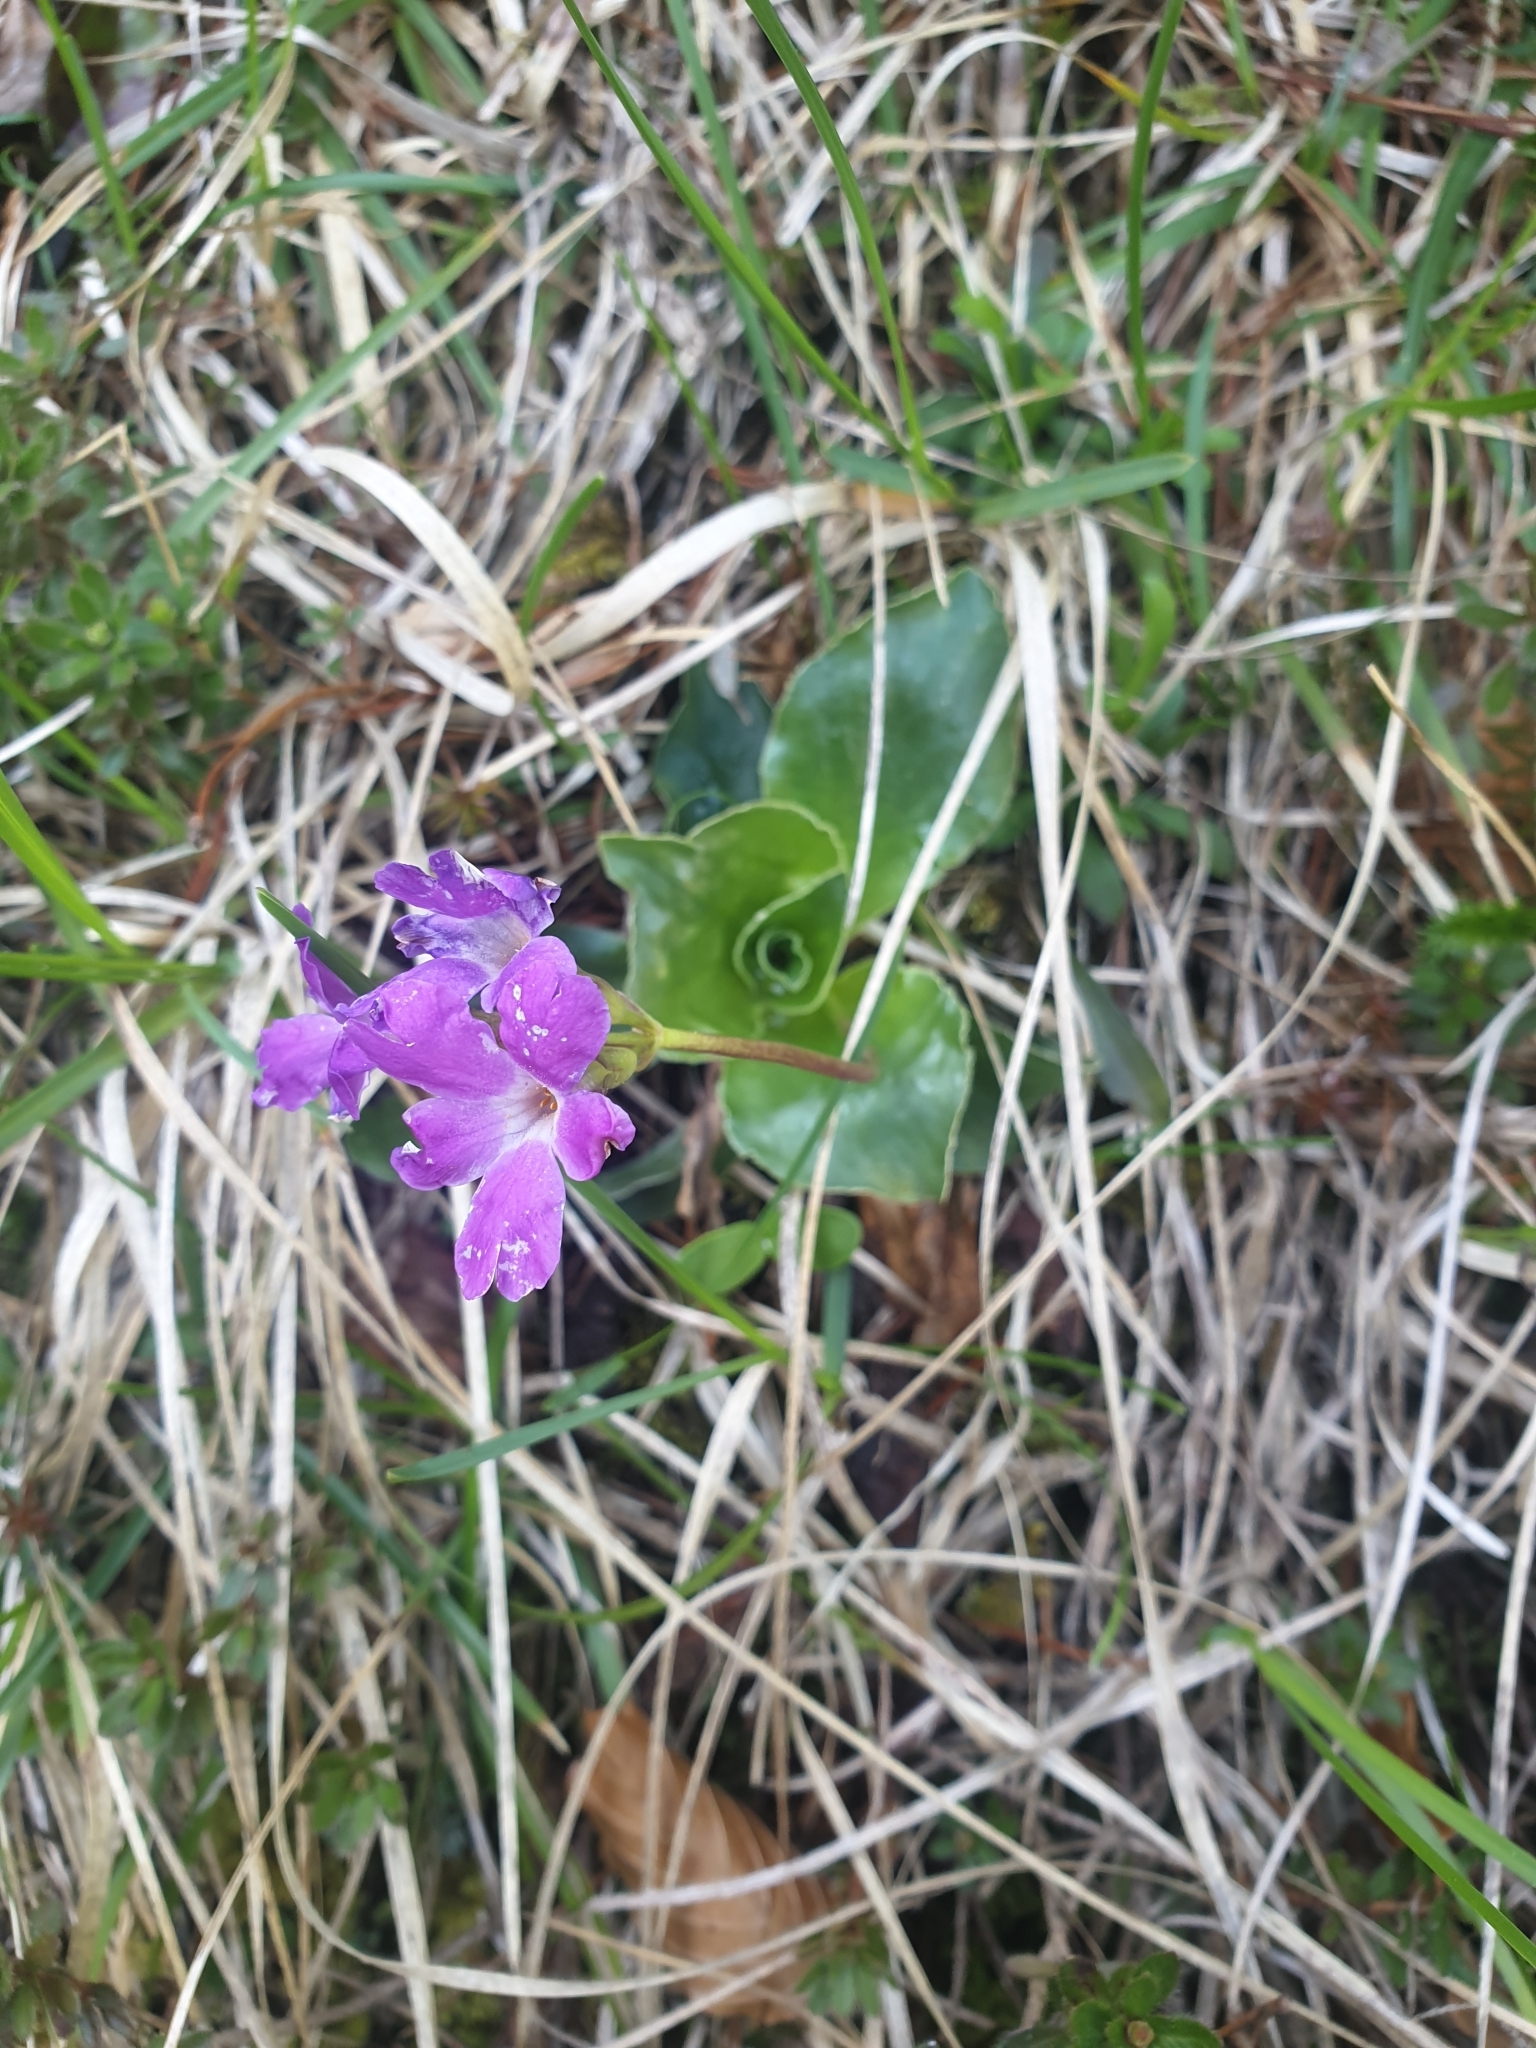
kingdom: Plantae
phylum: Tracheophyta
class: Magnoliopsida
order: Ericales
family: Primulaceae
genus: Primula
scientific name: Primula spectabilis
